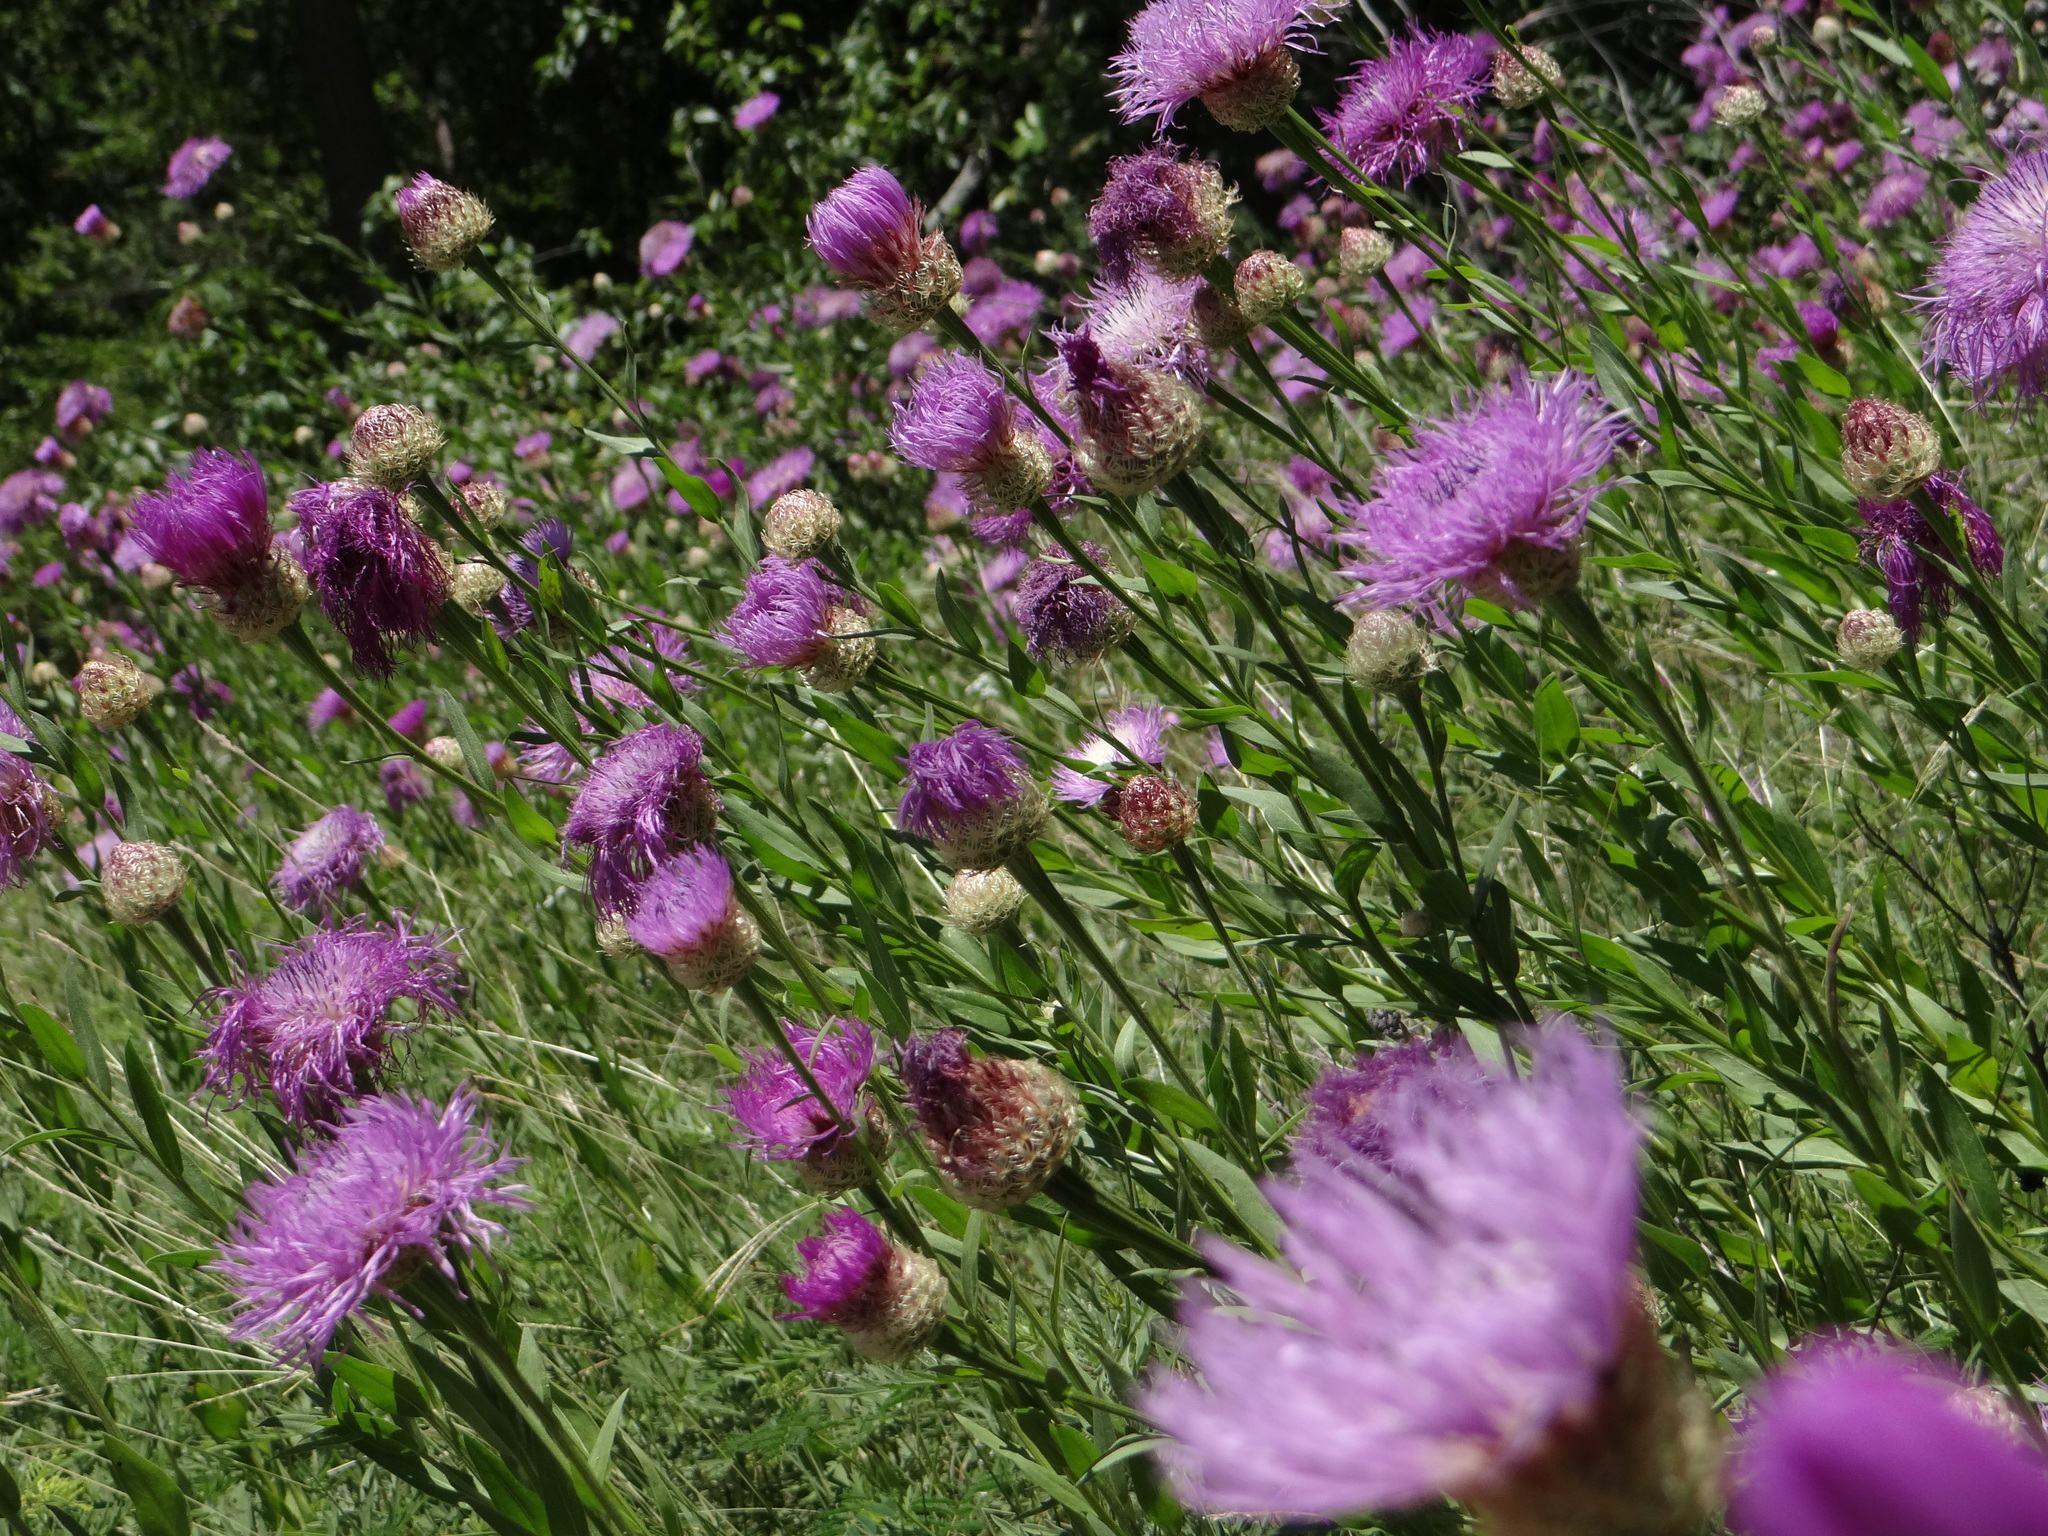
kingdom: Plantae
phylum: Tracheophyta
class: Magnoliopsida
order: Asterales
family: Asteraceae
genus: Plectocephalus
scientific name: Plectocephalus americanus
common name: American basket-flower
